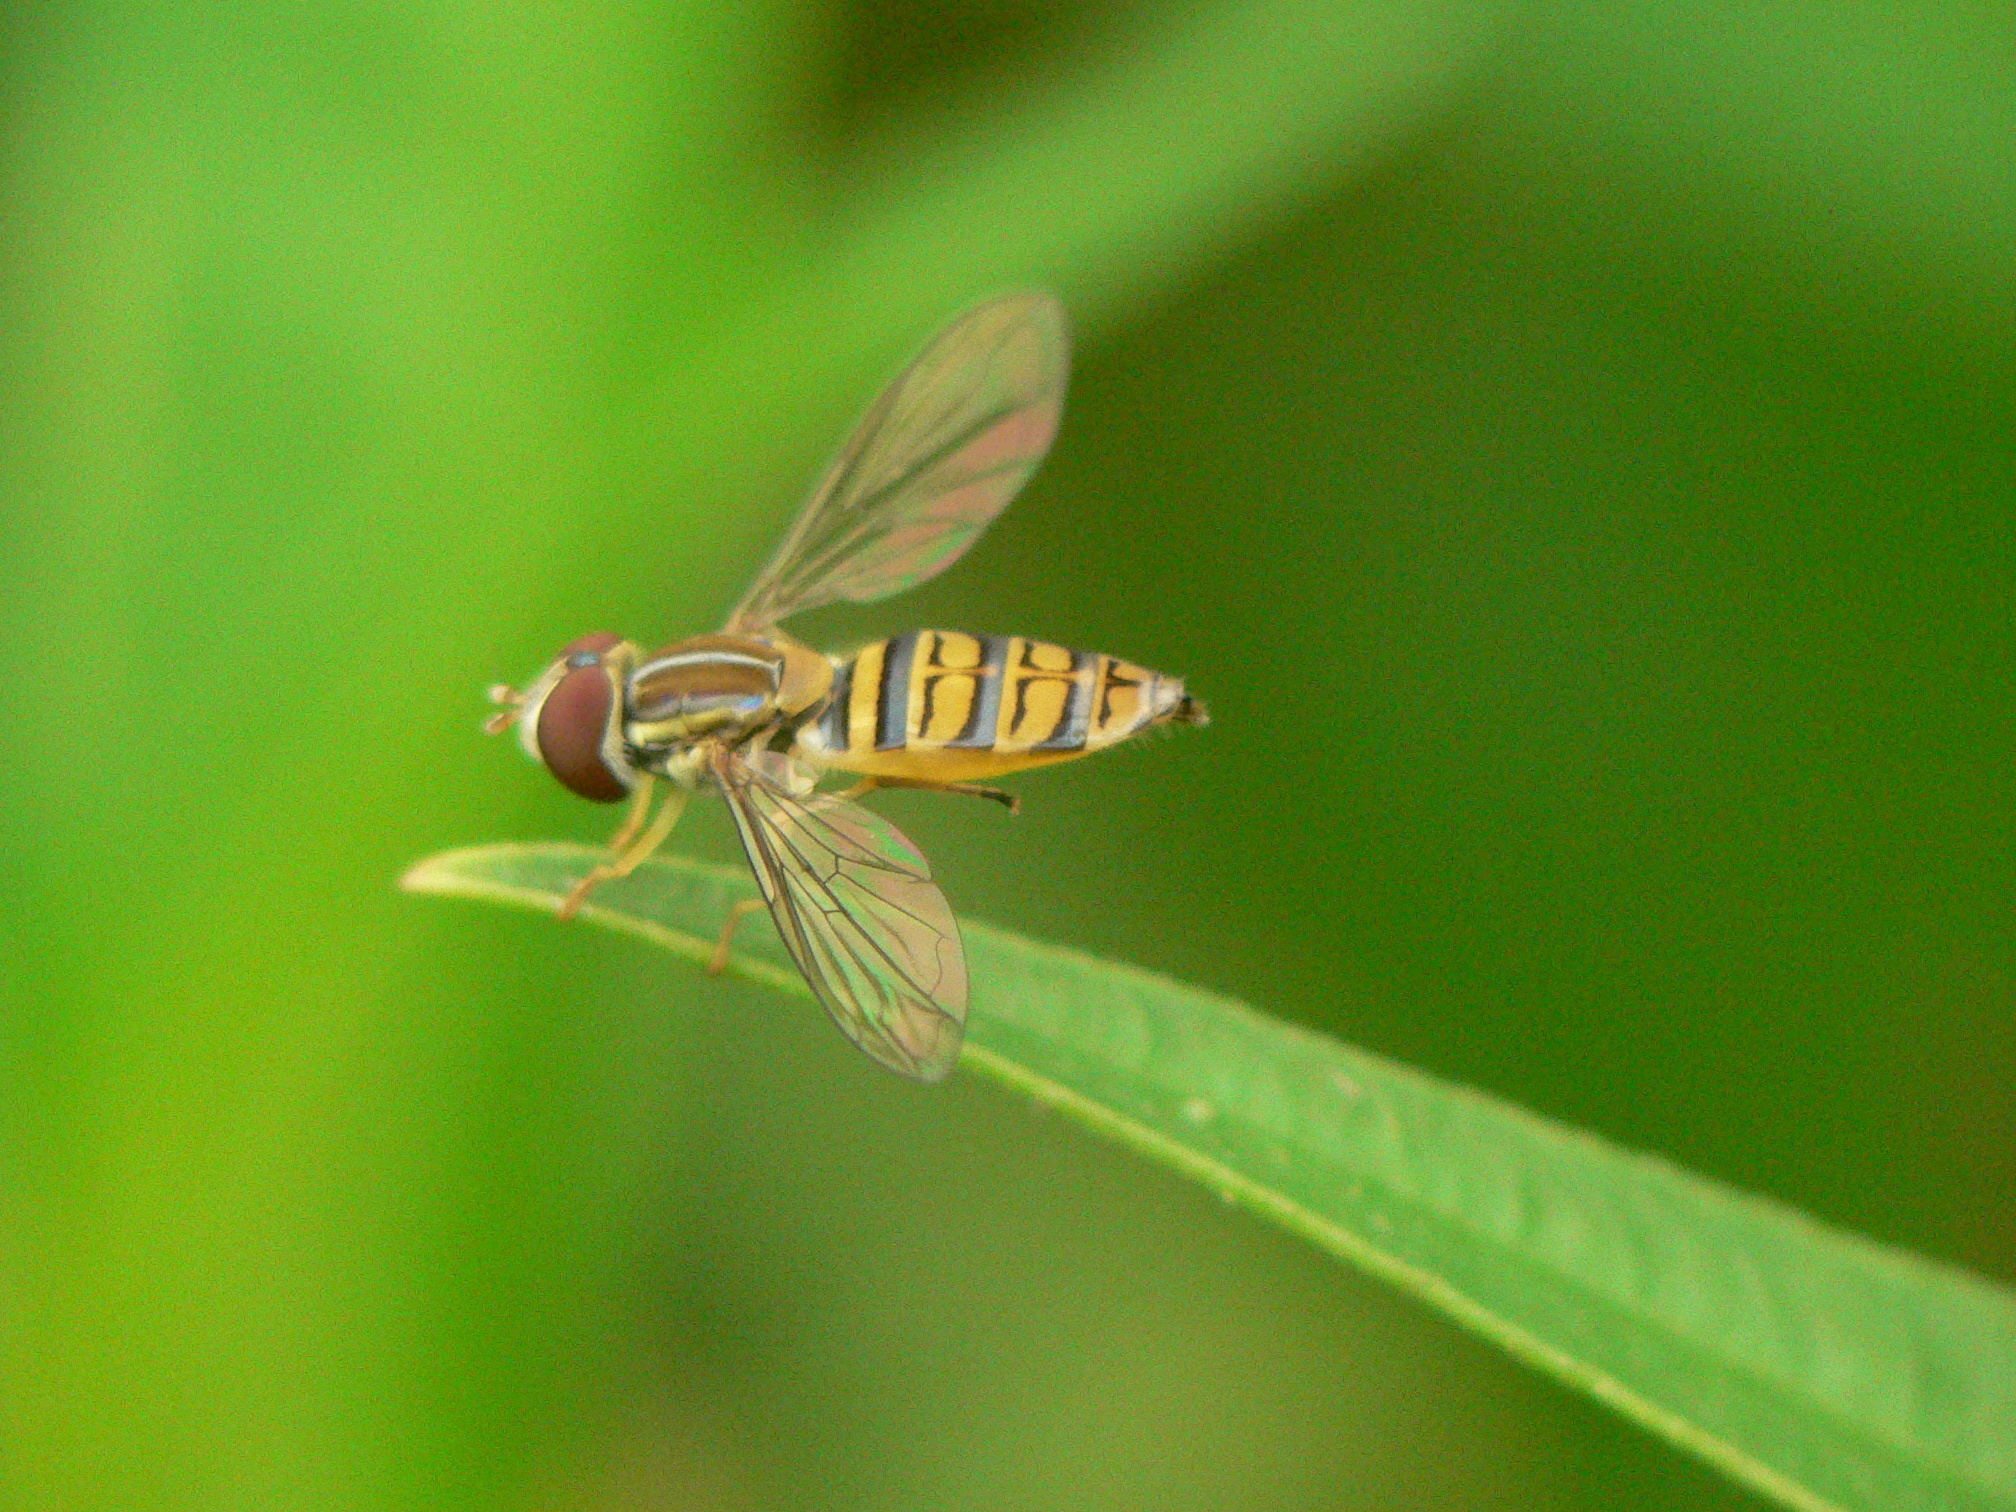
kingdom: Animalia
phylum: Arthropoda
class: Insecta
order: Diptera
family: Syrphidae
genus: Toxomerus
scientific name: Toxomerus politus
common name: Maize calligrapher
